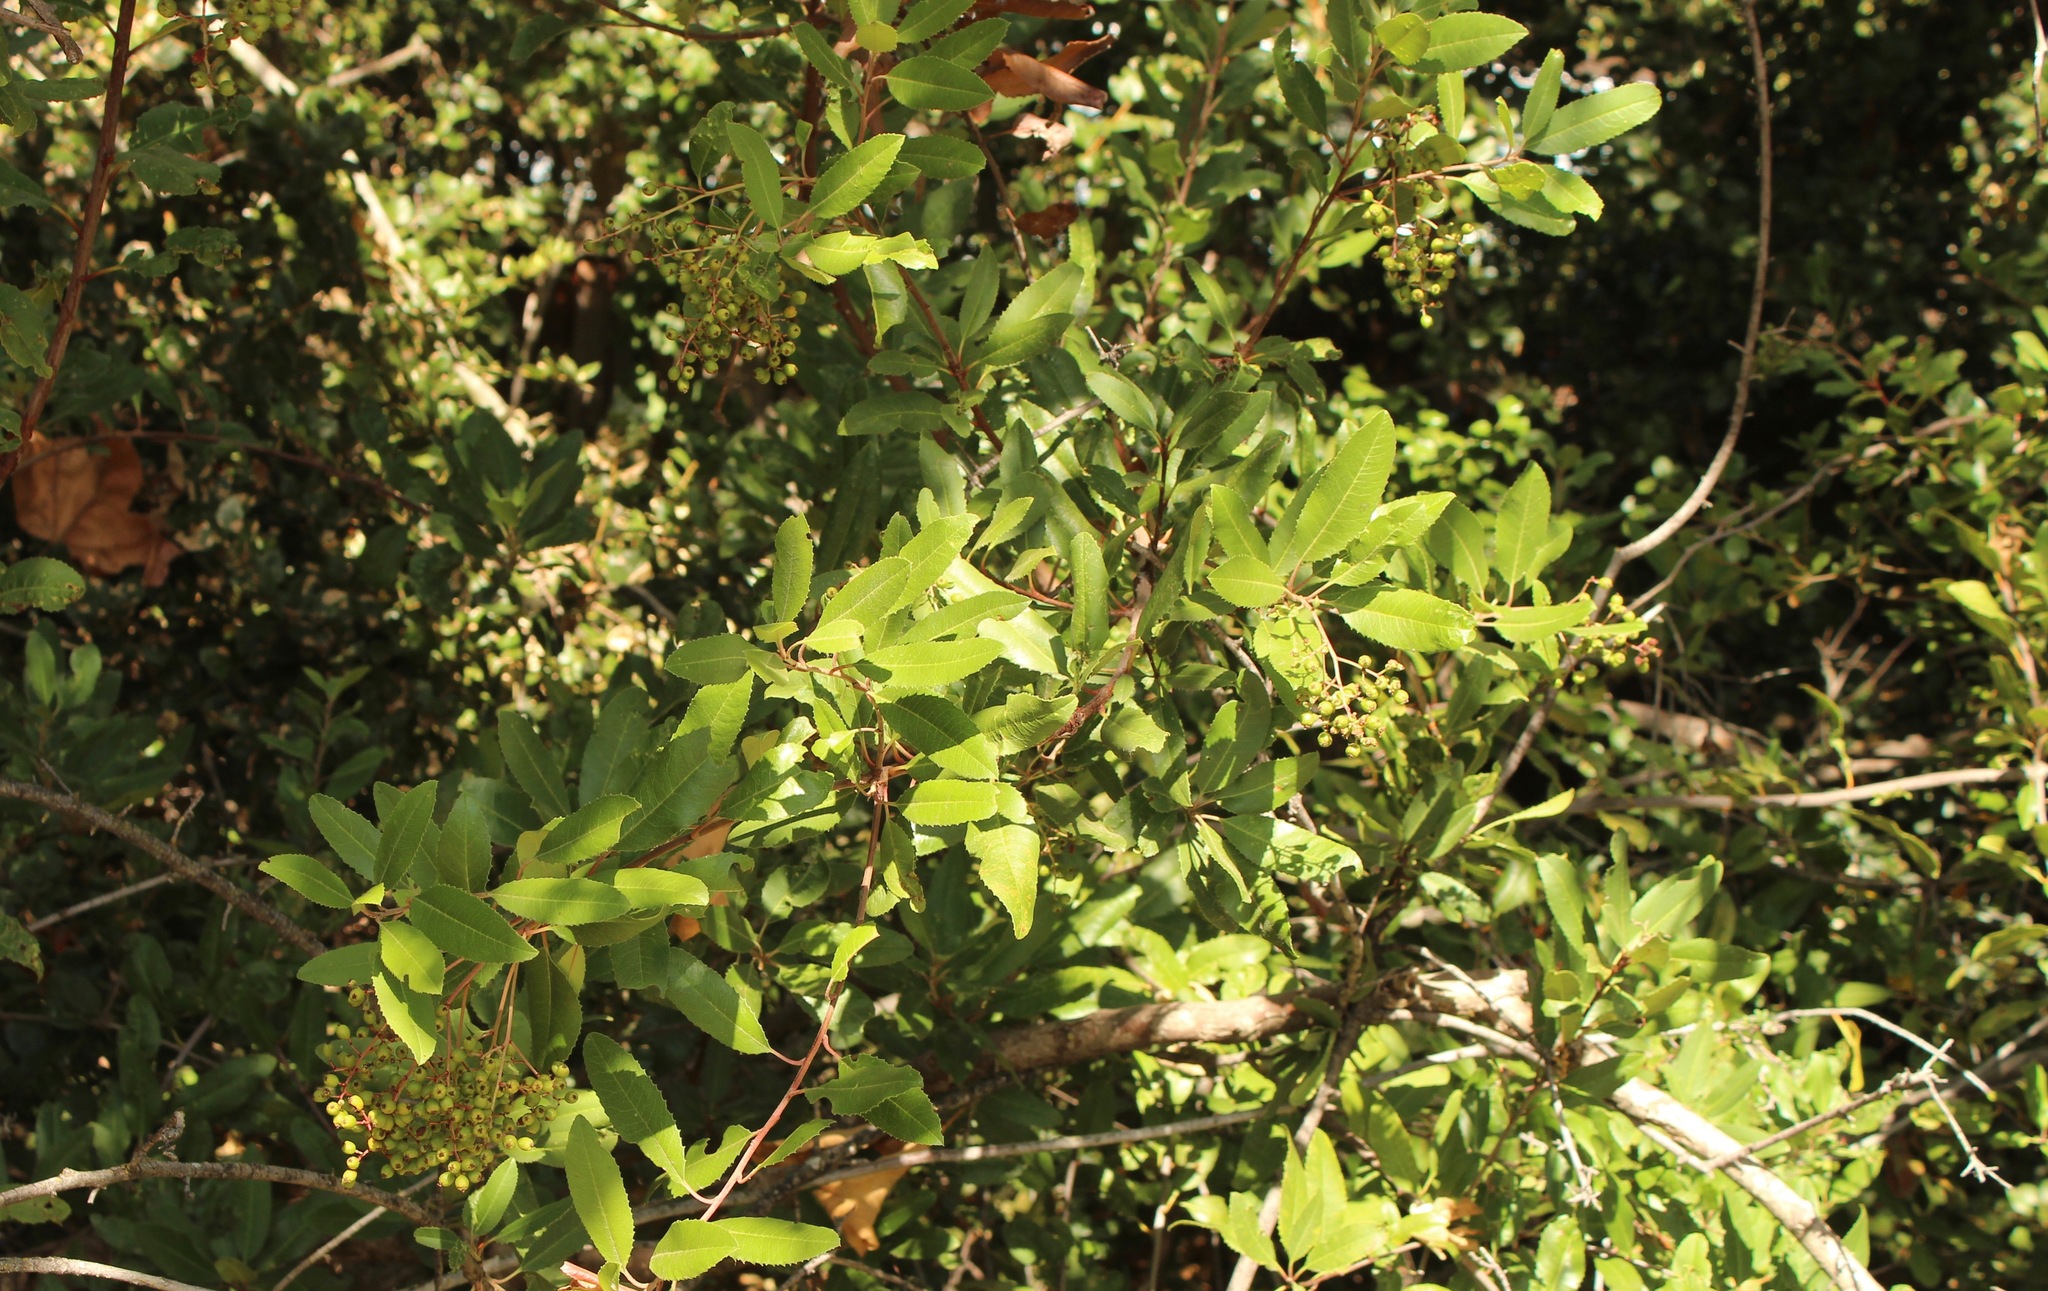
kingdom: Plantae
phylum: Tracheophyta
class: Magnoliopsida
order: Rosales
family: Rosaceae
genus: Heteromeles
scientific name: Heteromeles arbutifolia
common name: California-holly
